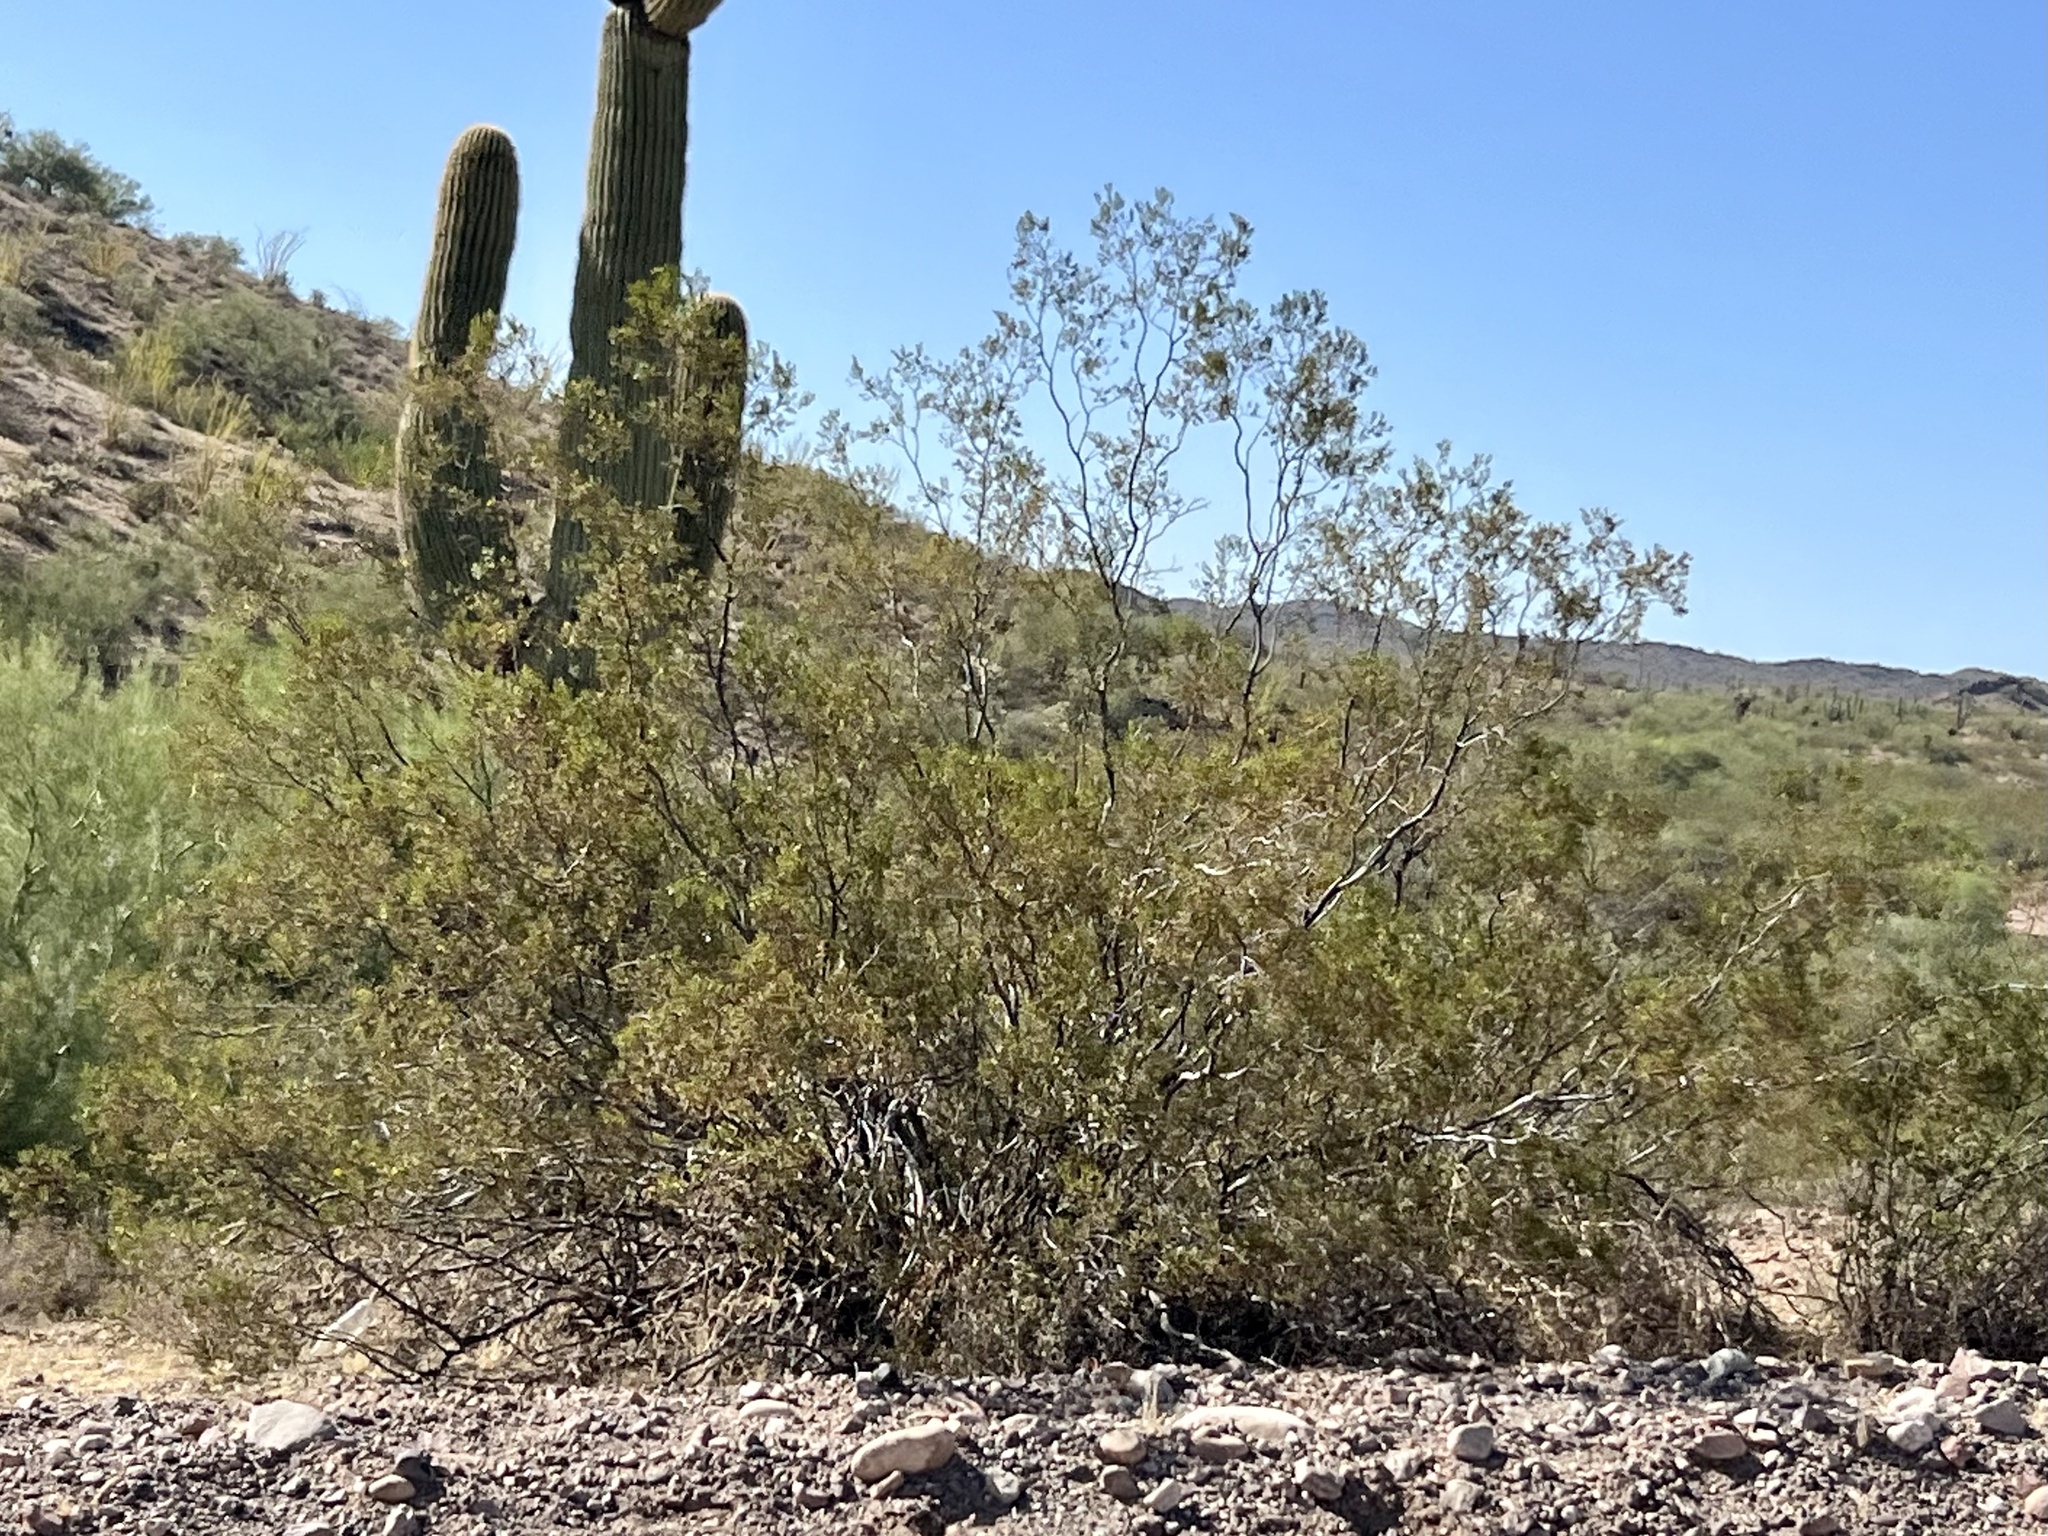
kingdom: Plantae
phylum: Tracheophyta
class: Magnoliopsida
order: Zygophyllales
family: Zygophyllaceae
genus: Larrea
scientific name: Larrea tridentata
